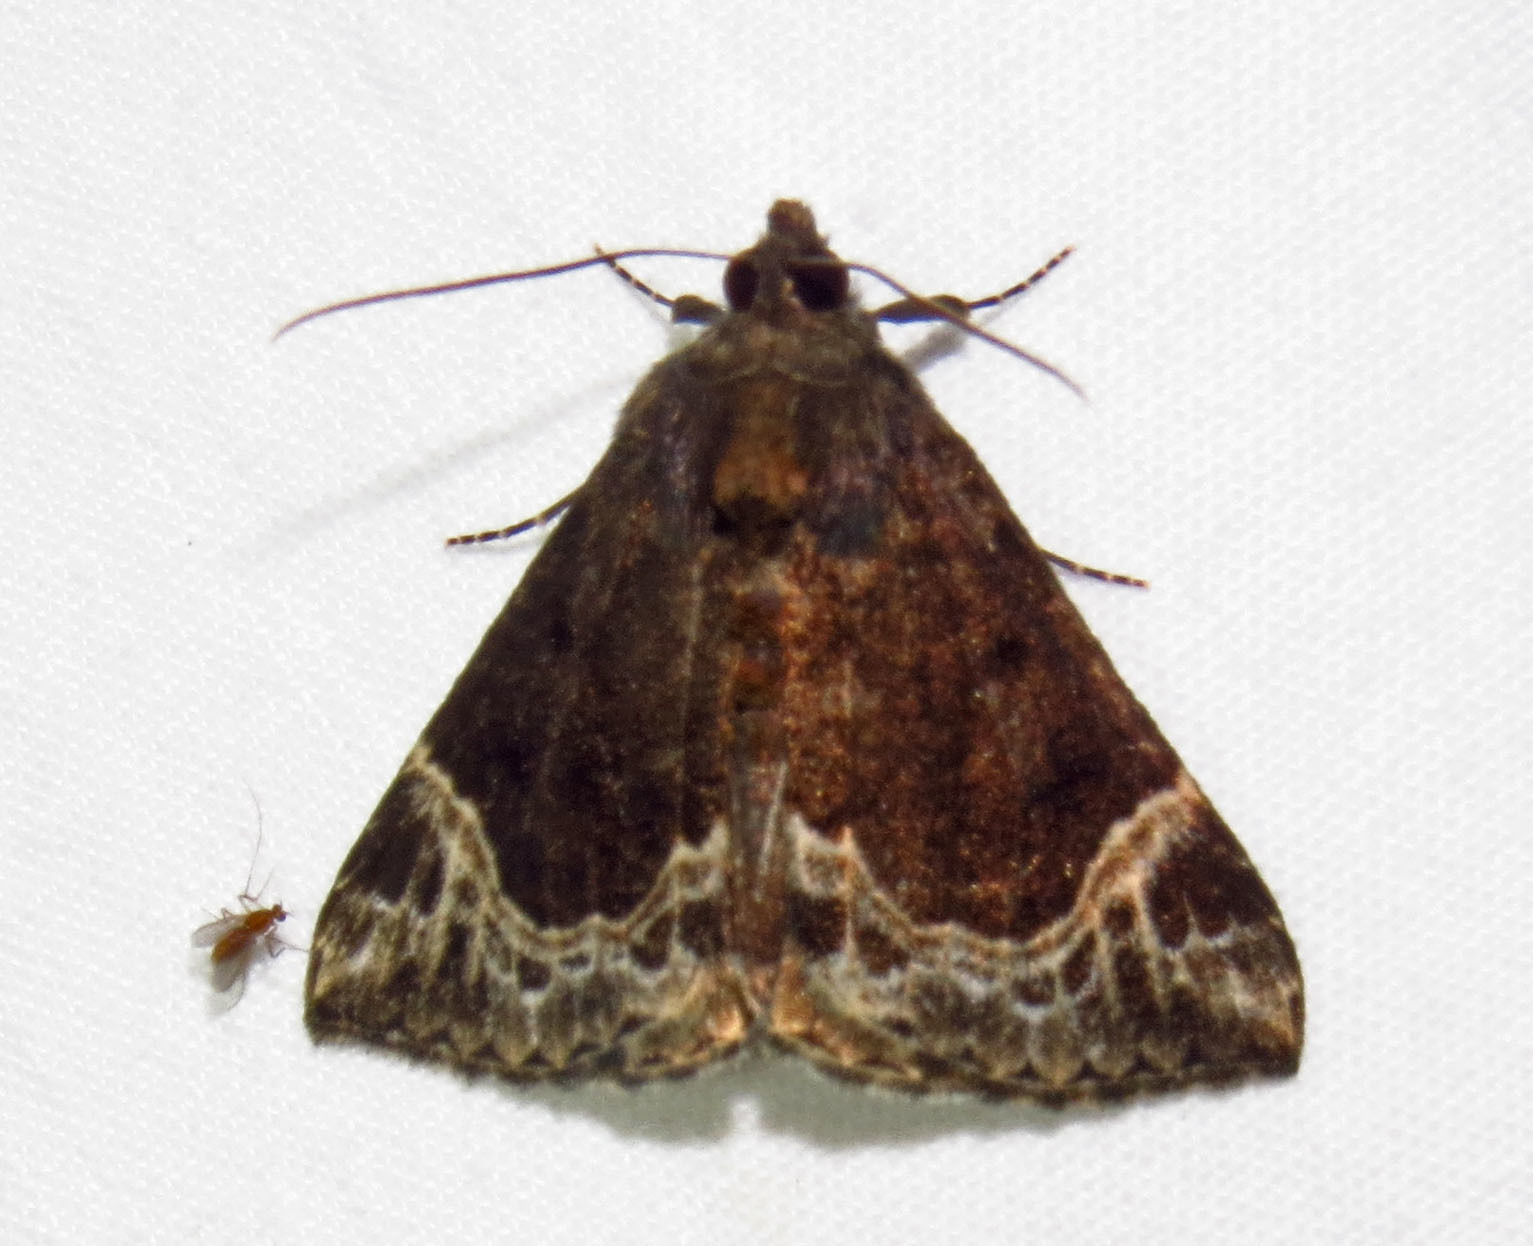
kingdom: Animalia
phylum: Arthropoda
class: Insecta
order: Lepidoptera
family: Erebidae
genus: Hypena
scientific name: Hypena abalienalis
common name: White-lined snout
